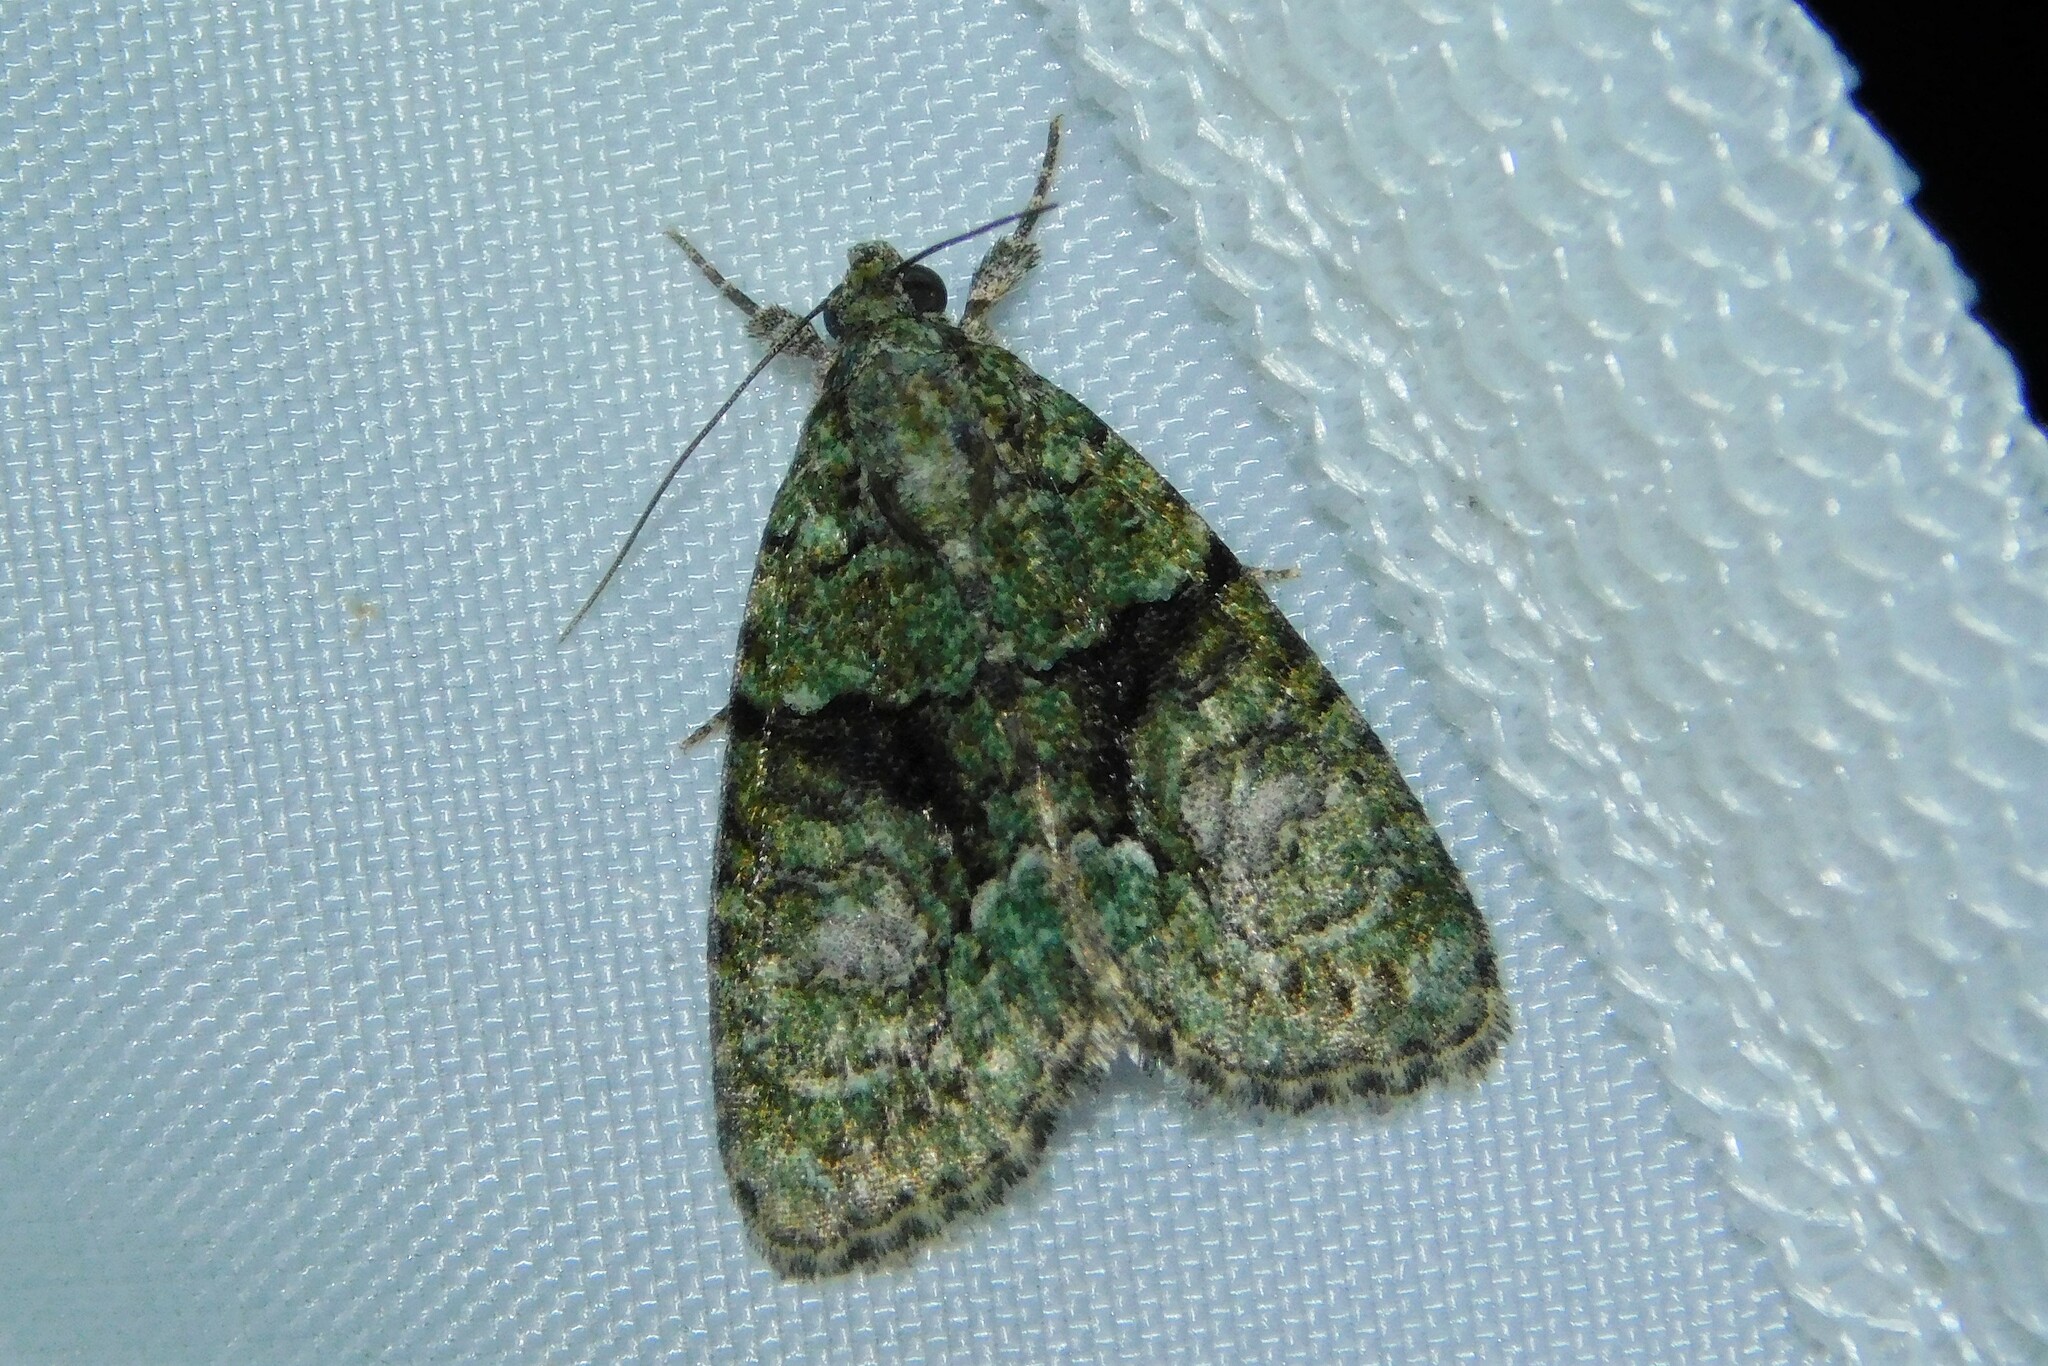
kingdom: Animalia
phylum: Arthropoda
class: Insecta
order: Lepidoptera
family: Noctuidae
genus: Cryphia
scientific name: Cryphia algae
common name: Tree-lichen beauty
